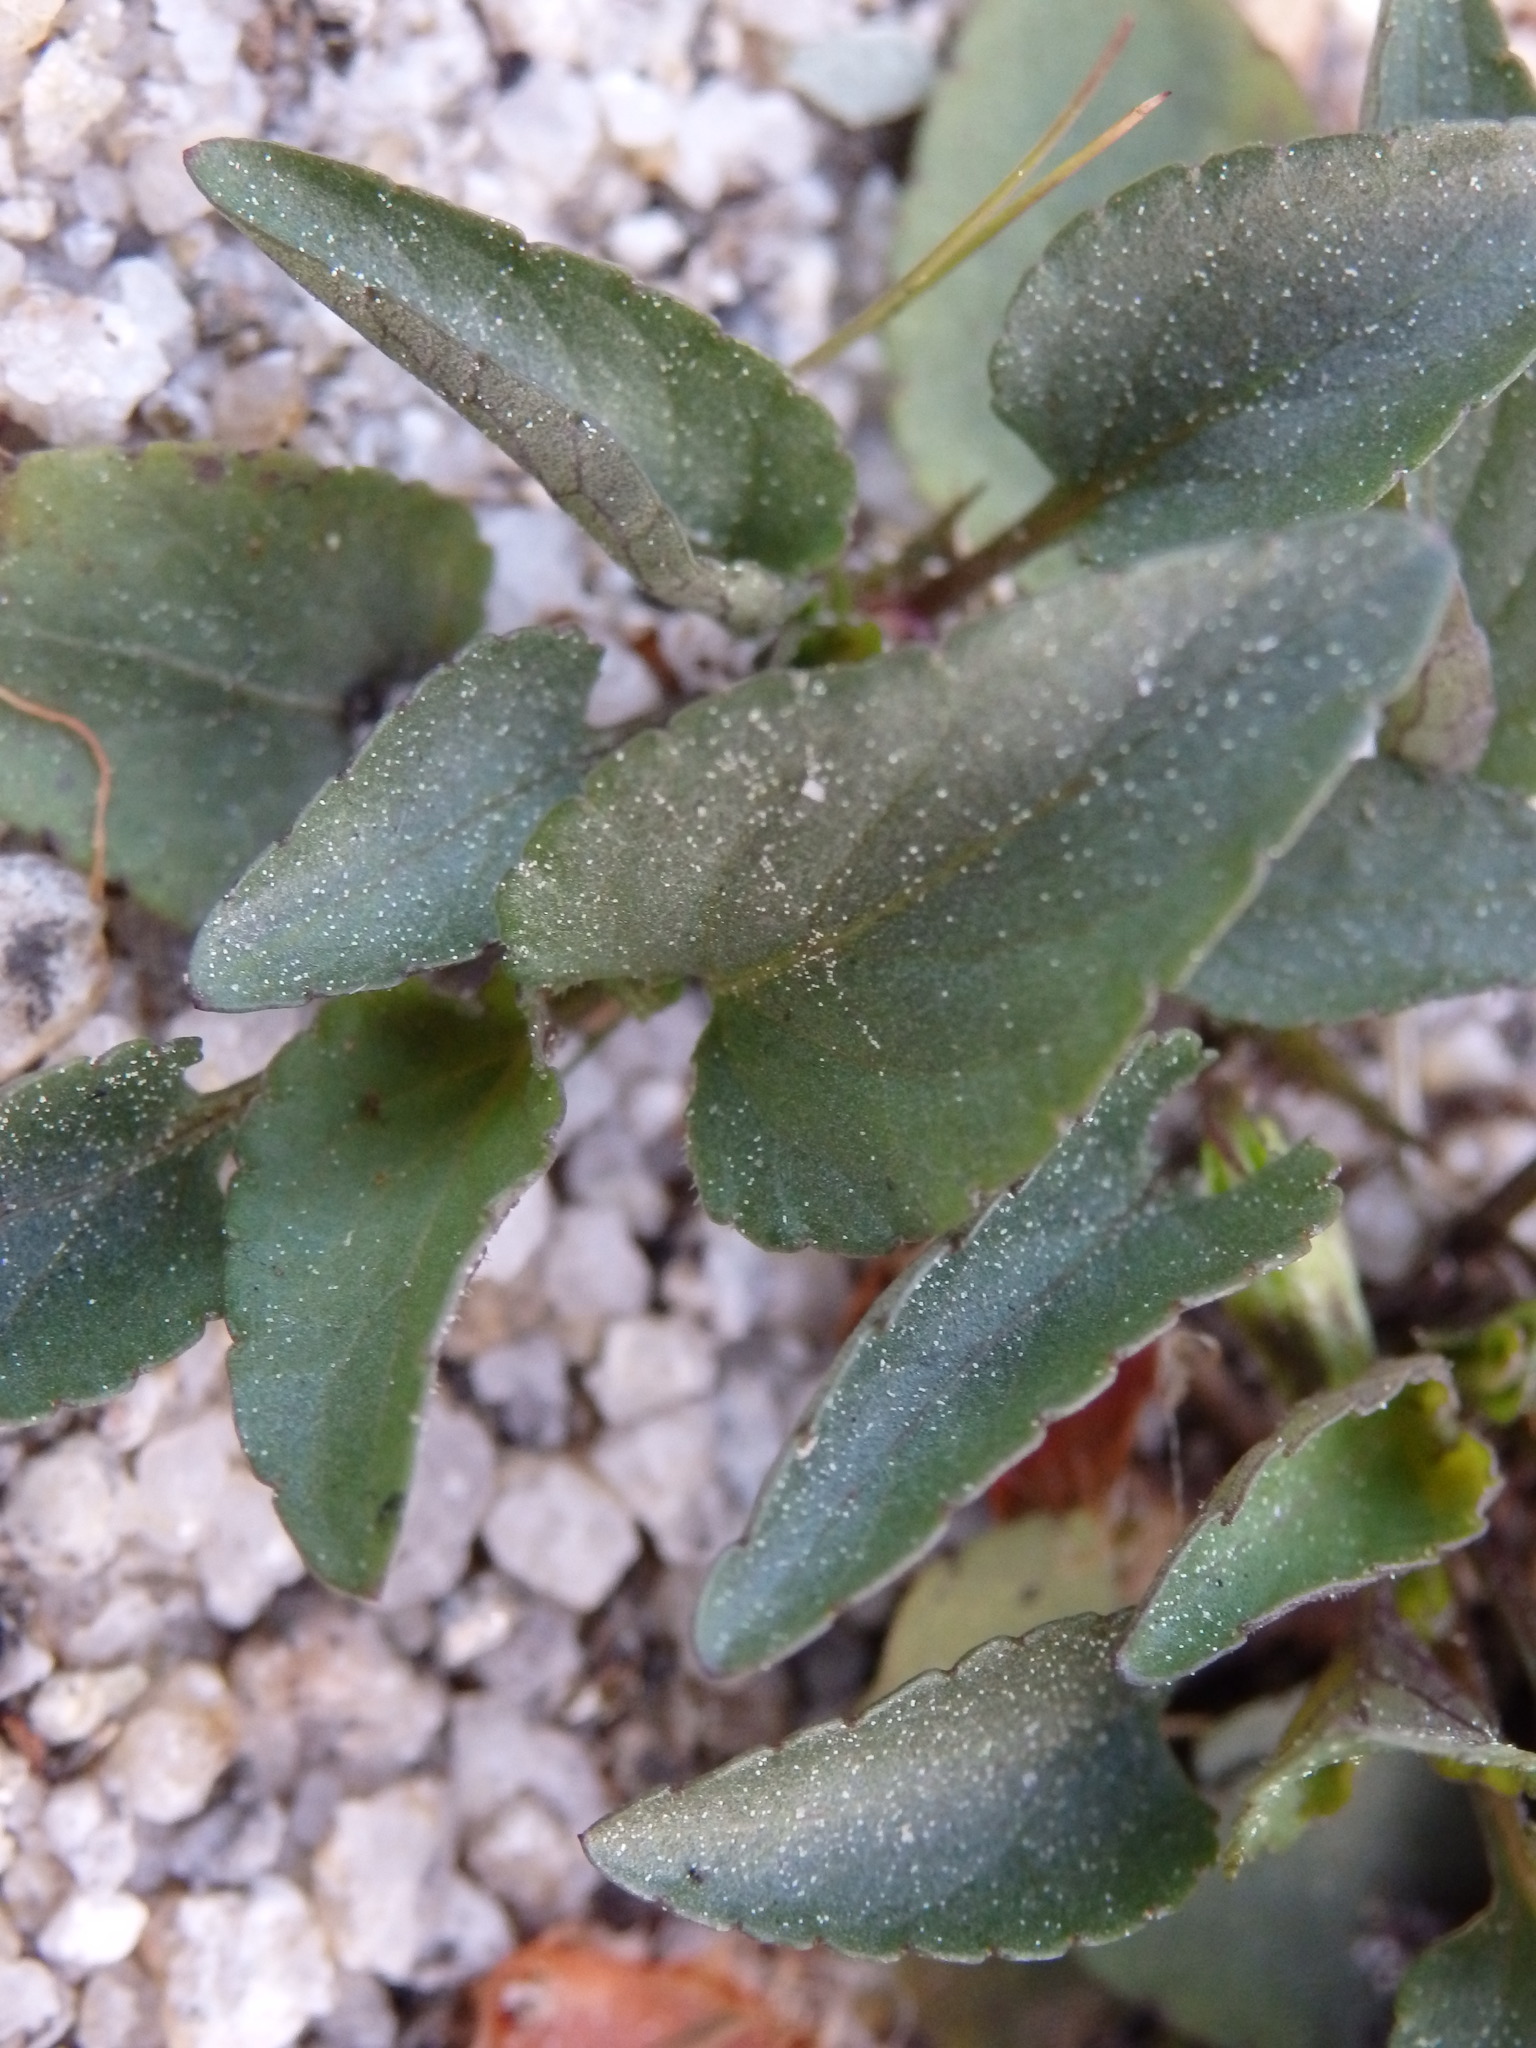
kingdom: Plantae
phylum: Tracheophyta
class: Magnoliopsida
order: Malpighiales
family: Violaceae
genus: Viola
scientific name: Viola lactea
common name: Pale dog-violet
